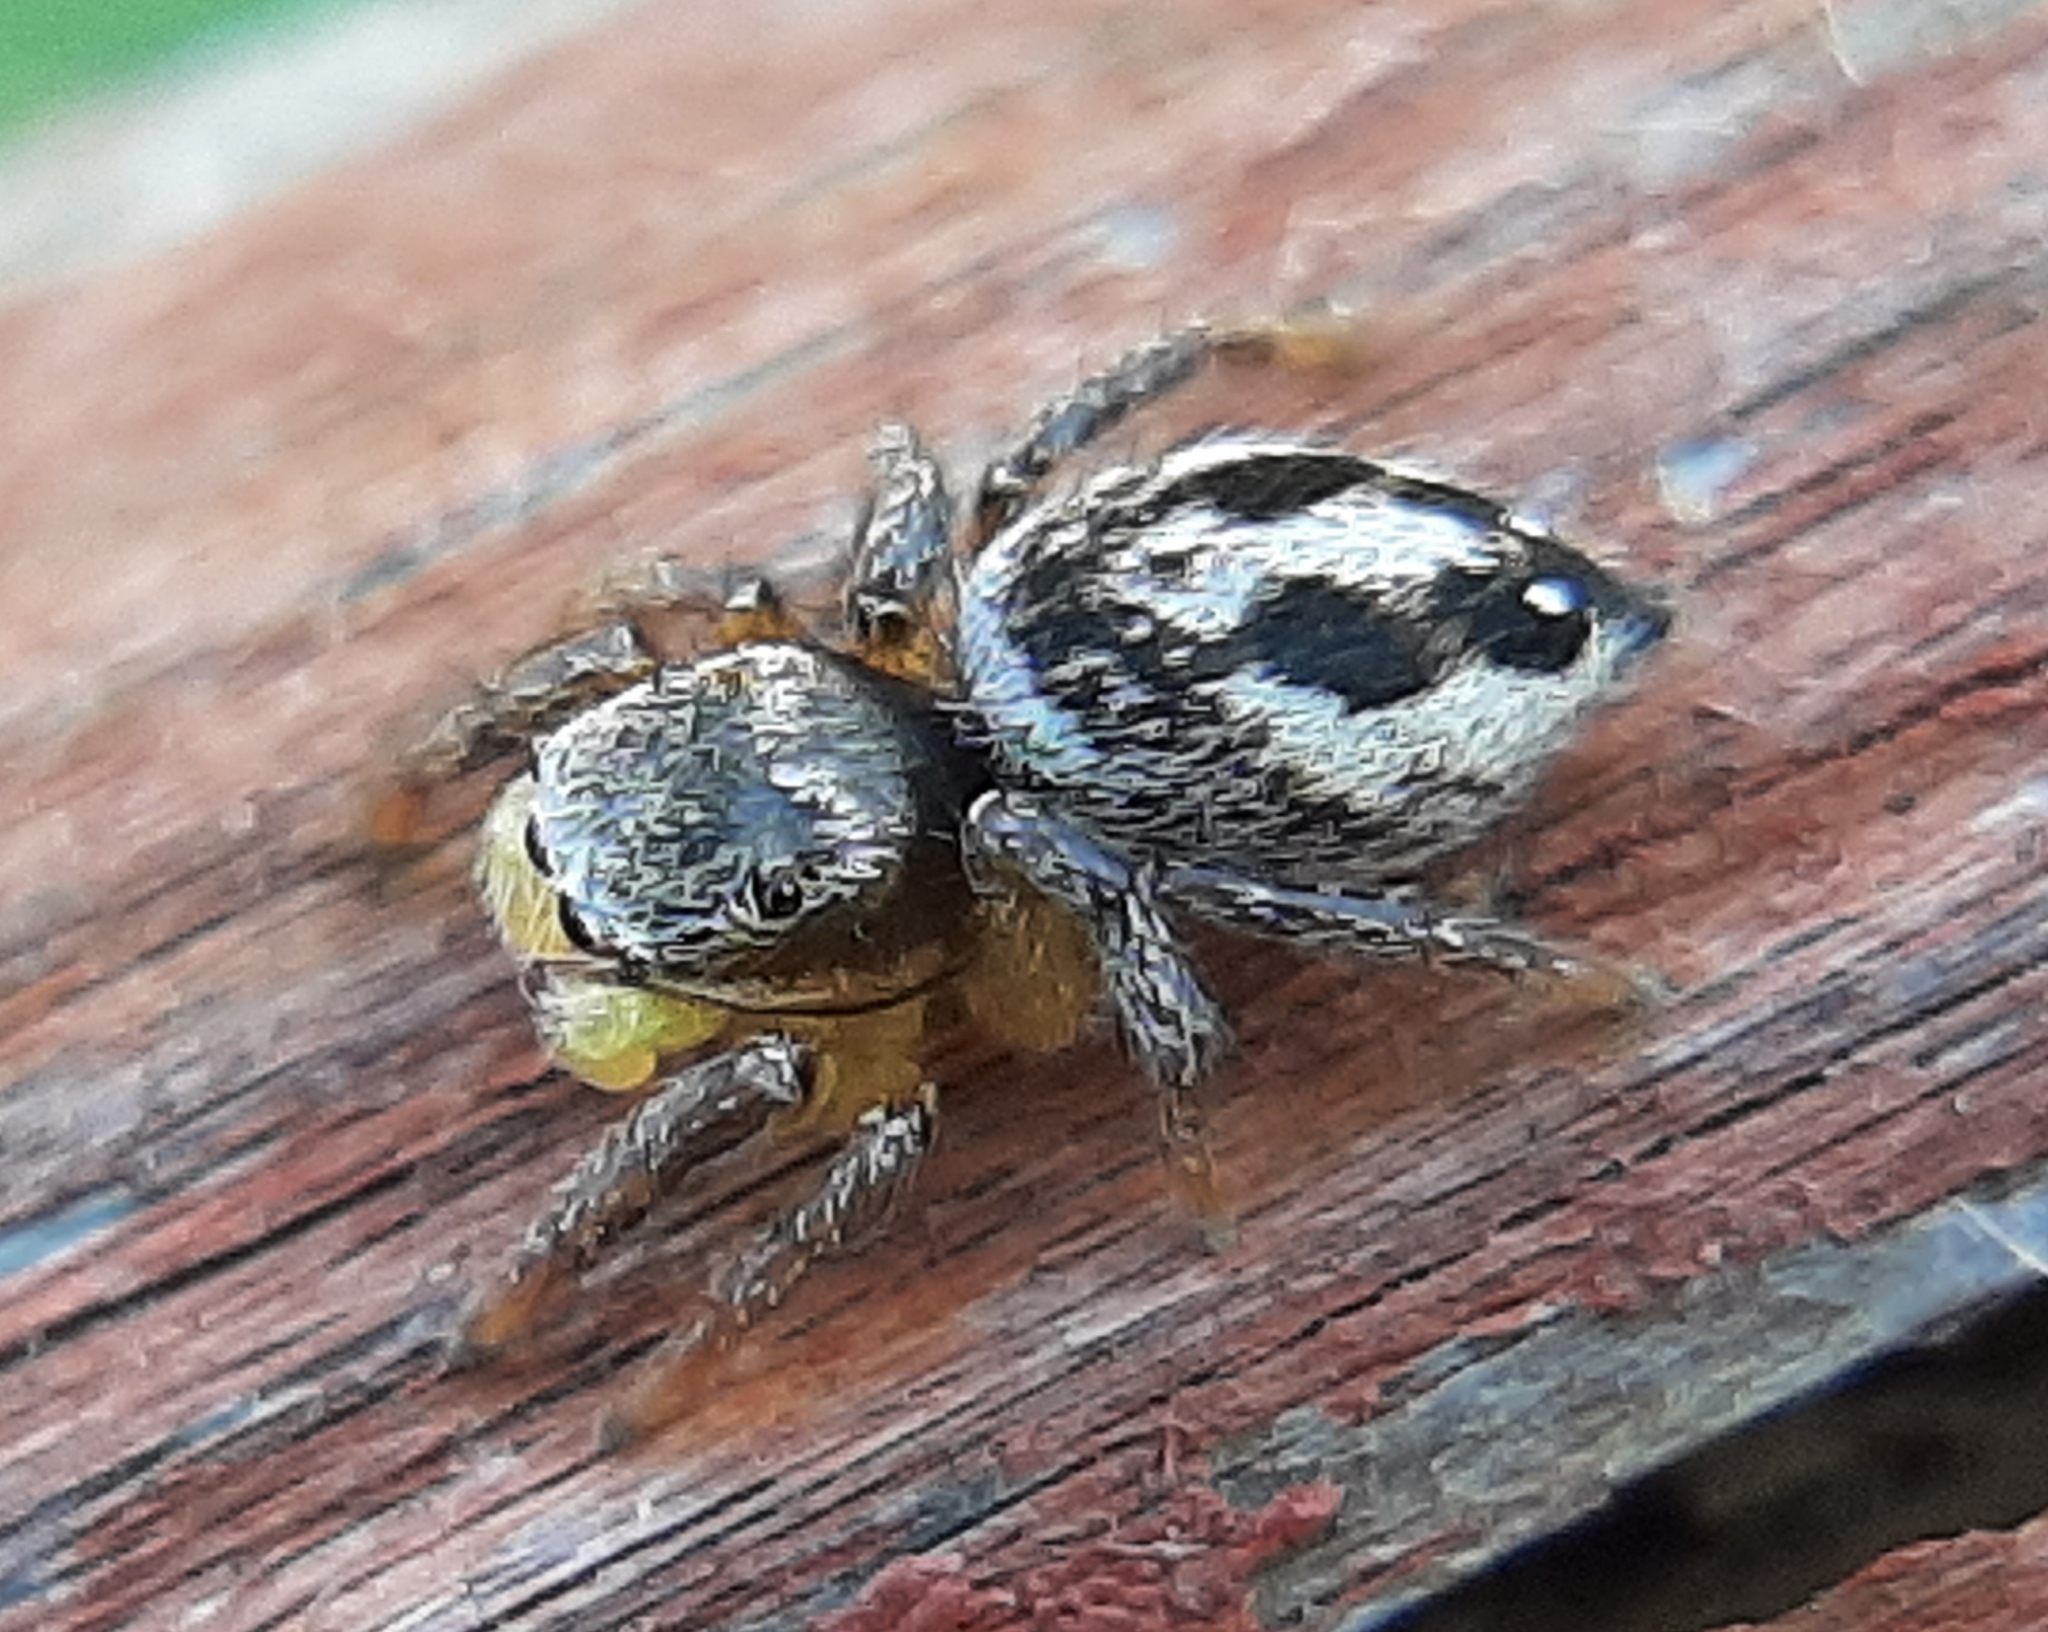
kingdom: Animalia
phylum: Arthropoda
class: Arachnida
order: Araneae
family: Salticidae
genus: Habronattus
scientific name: Habronattus decorus
